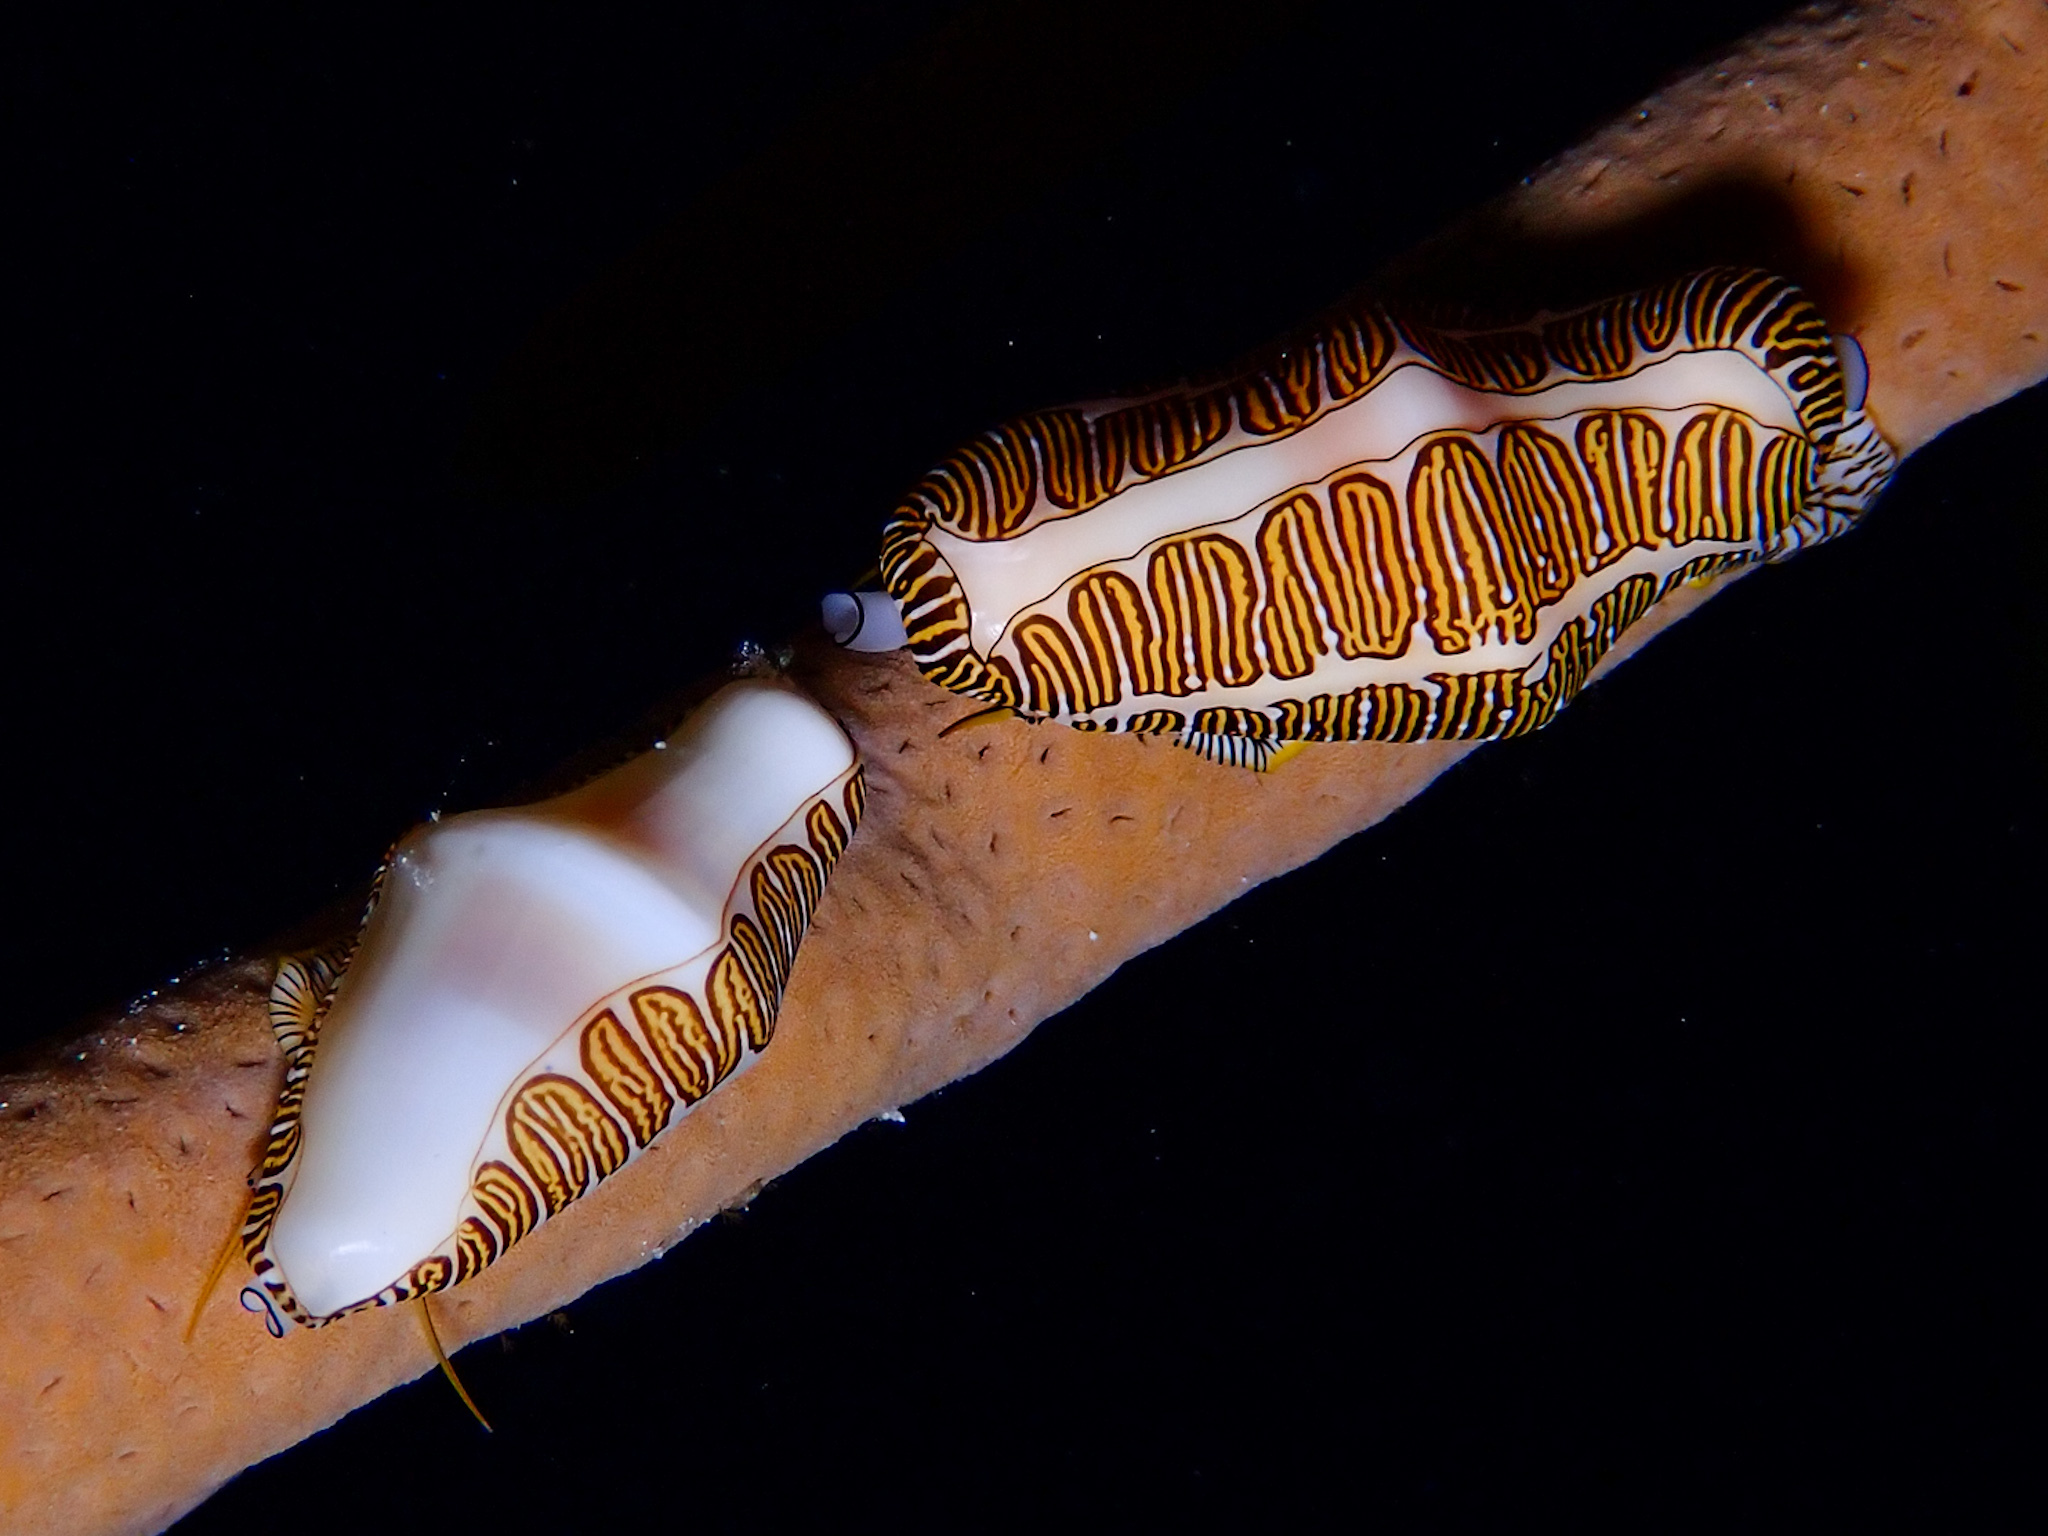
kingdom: Animalia
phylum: Mollusca
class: Gastropoda
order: Littorinimorpha
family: Ovulidae
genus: Cyphoma
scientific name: Cyphoma signatum
